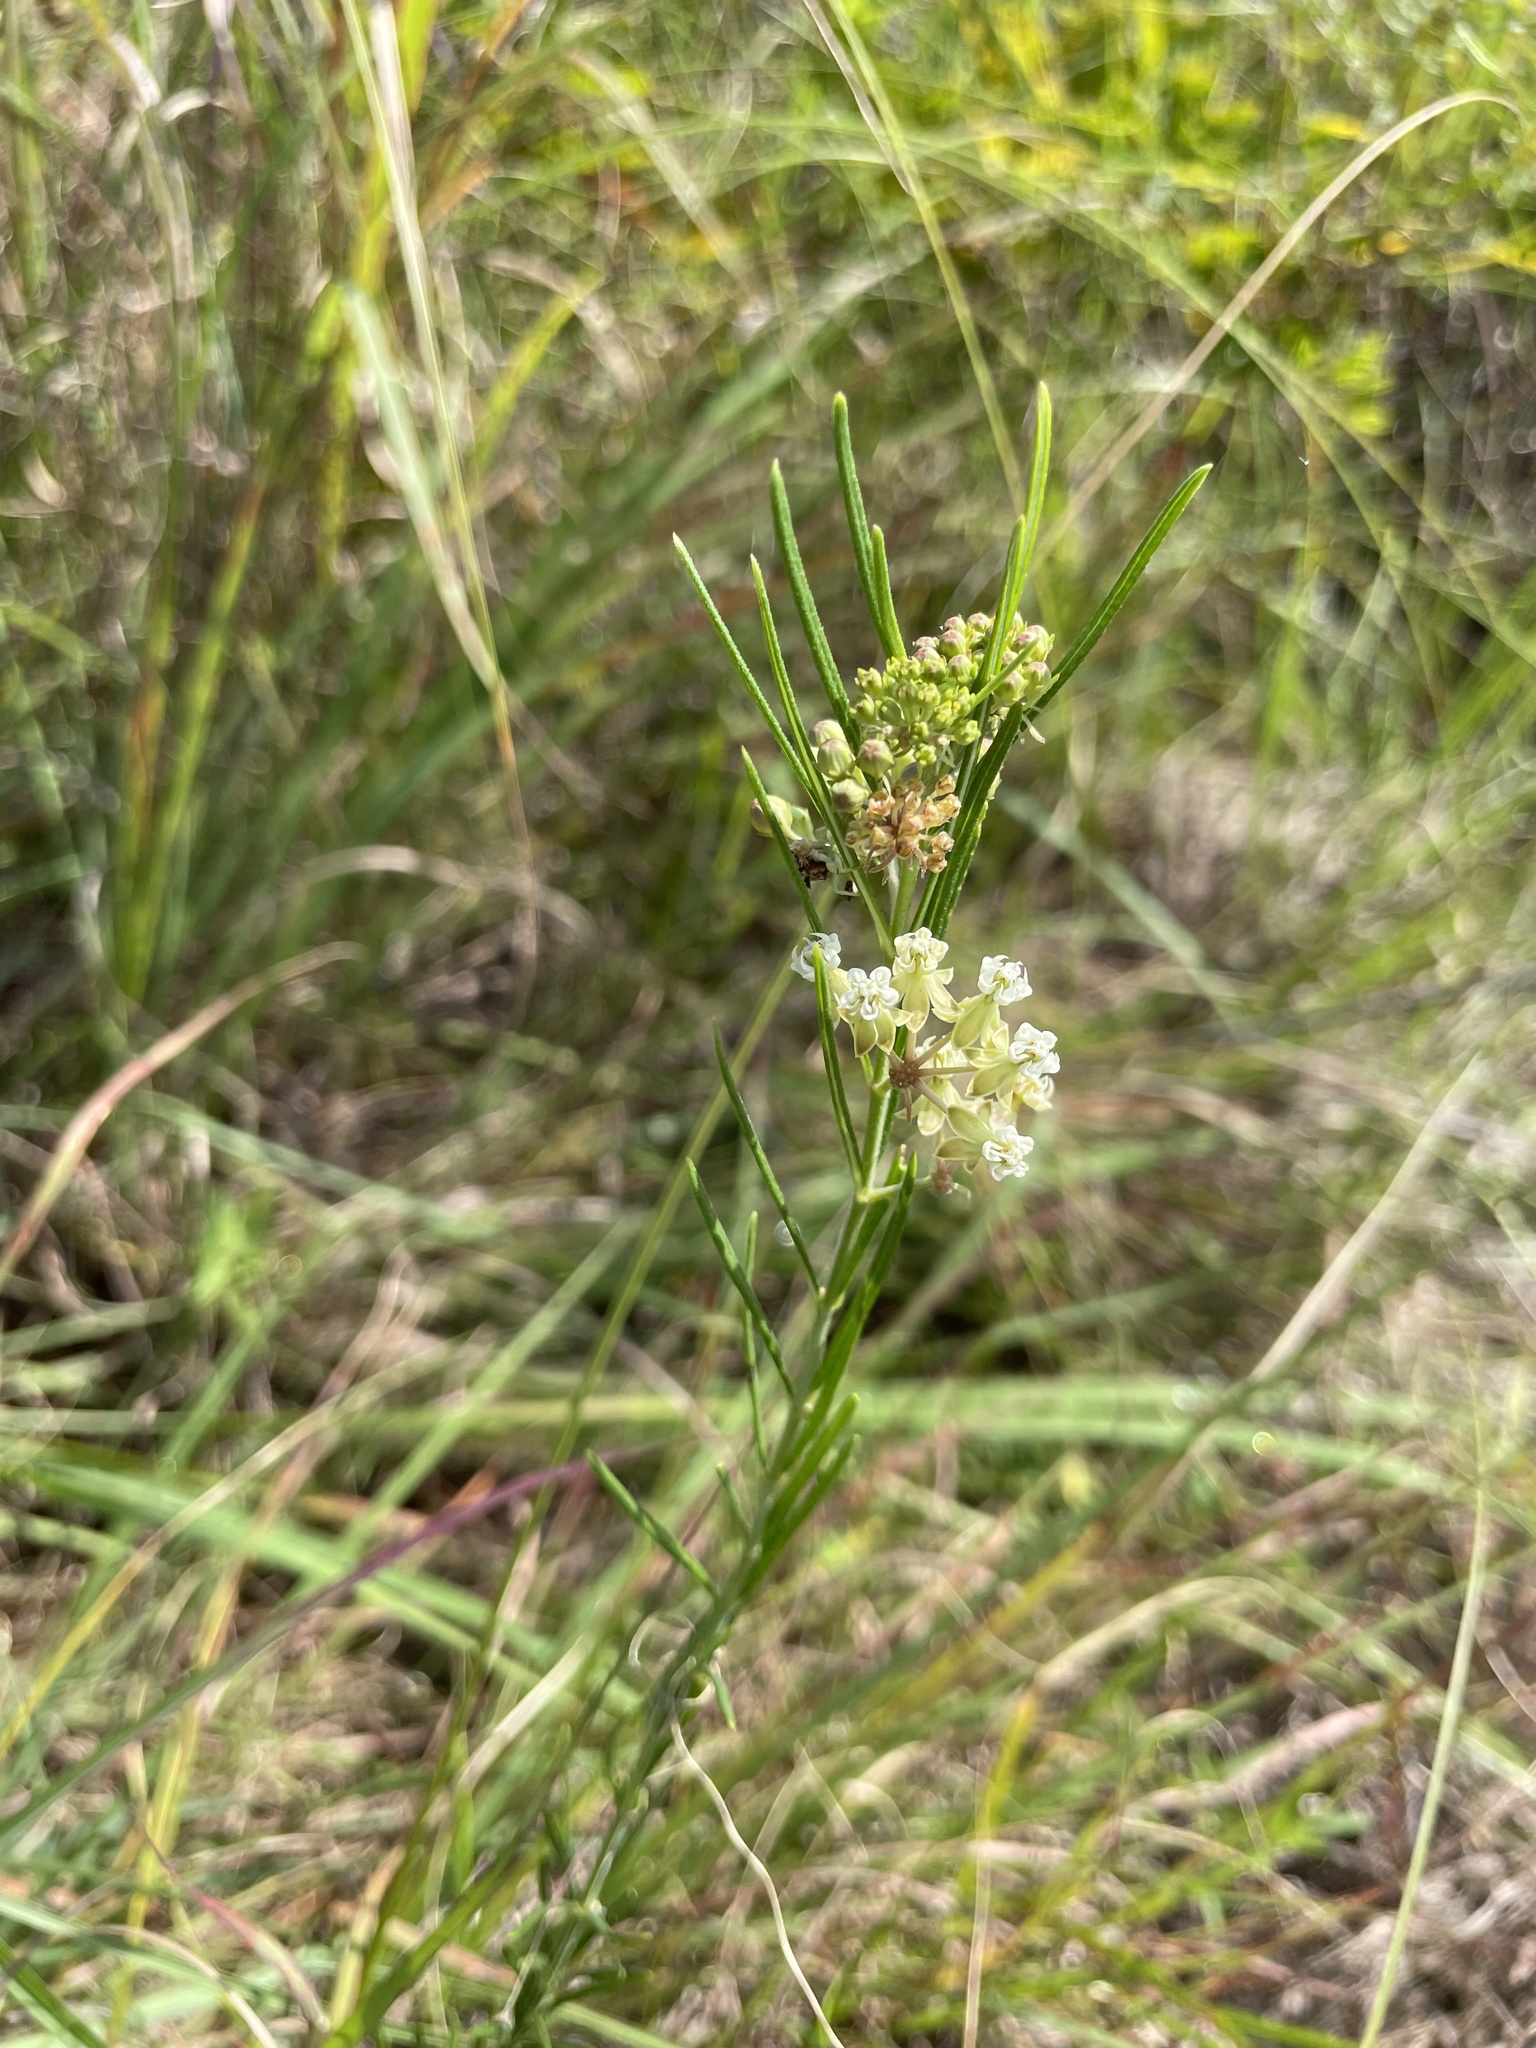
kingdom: Plantae
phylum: Tracheophyta
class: Magnoliopsida
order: Gentianales
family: Apocynaceae
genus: Asclepias
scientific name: Asclepias verticillata
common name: Eastern whorled milkweed
